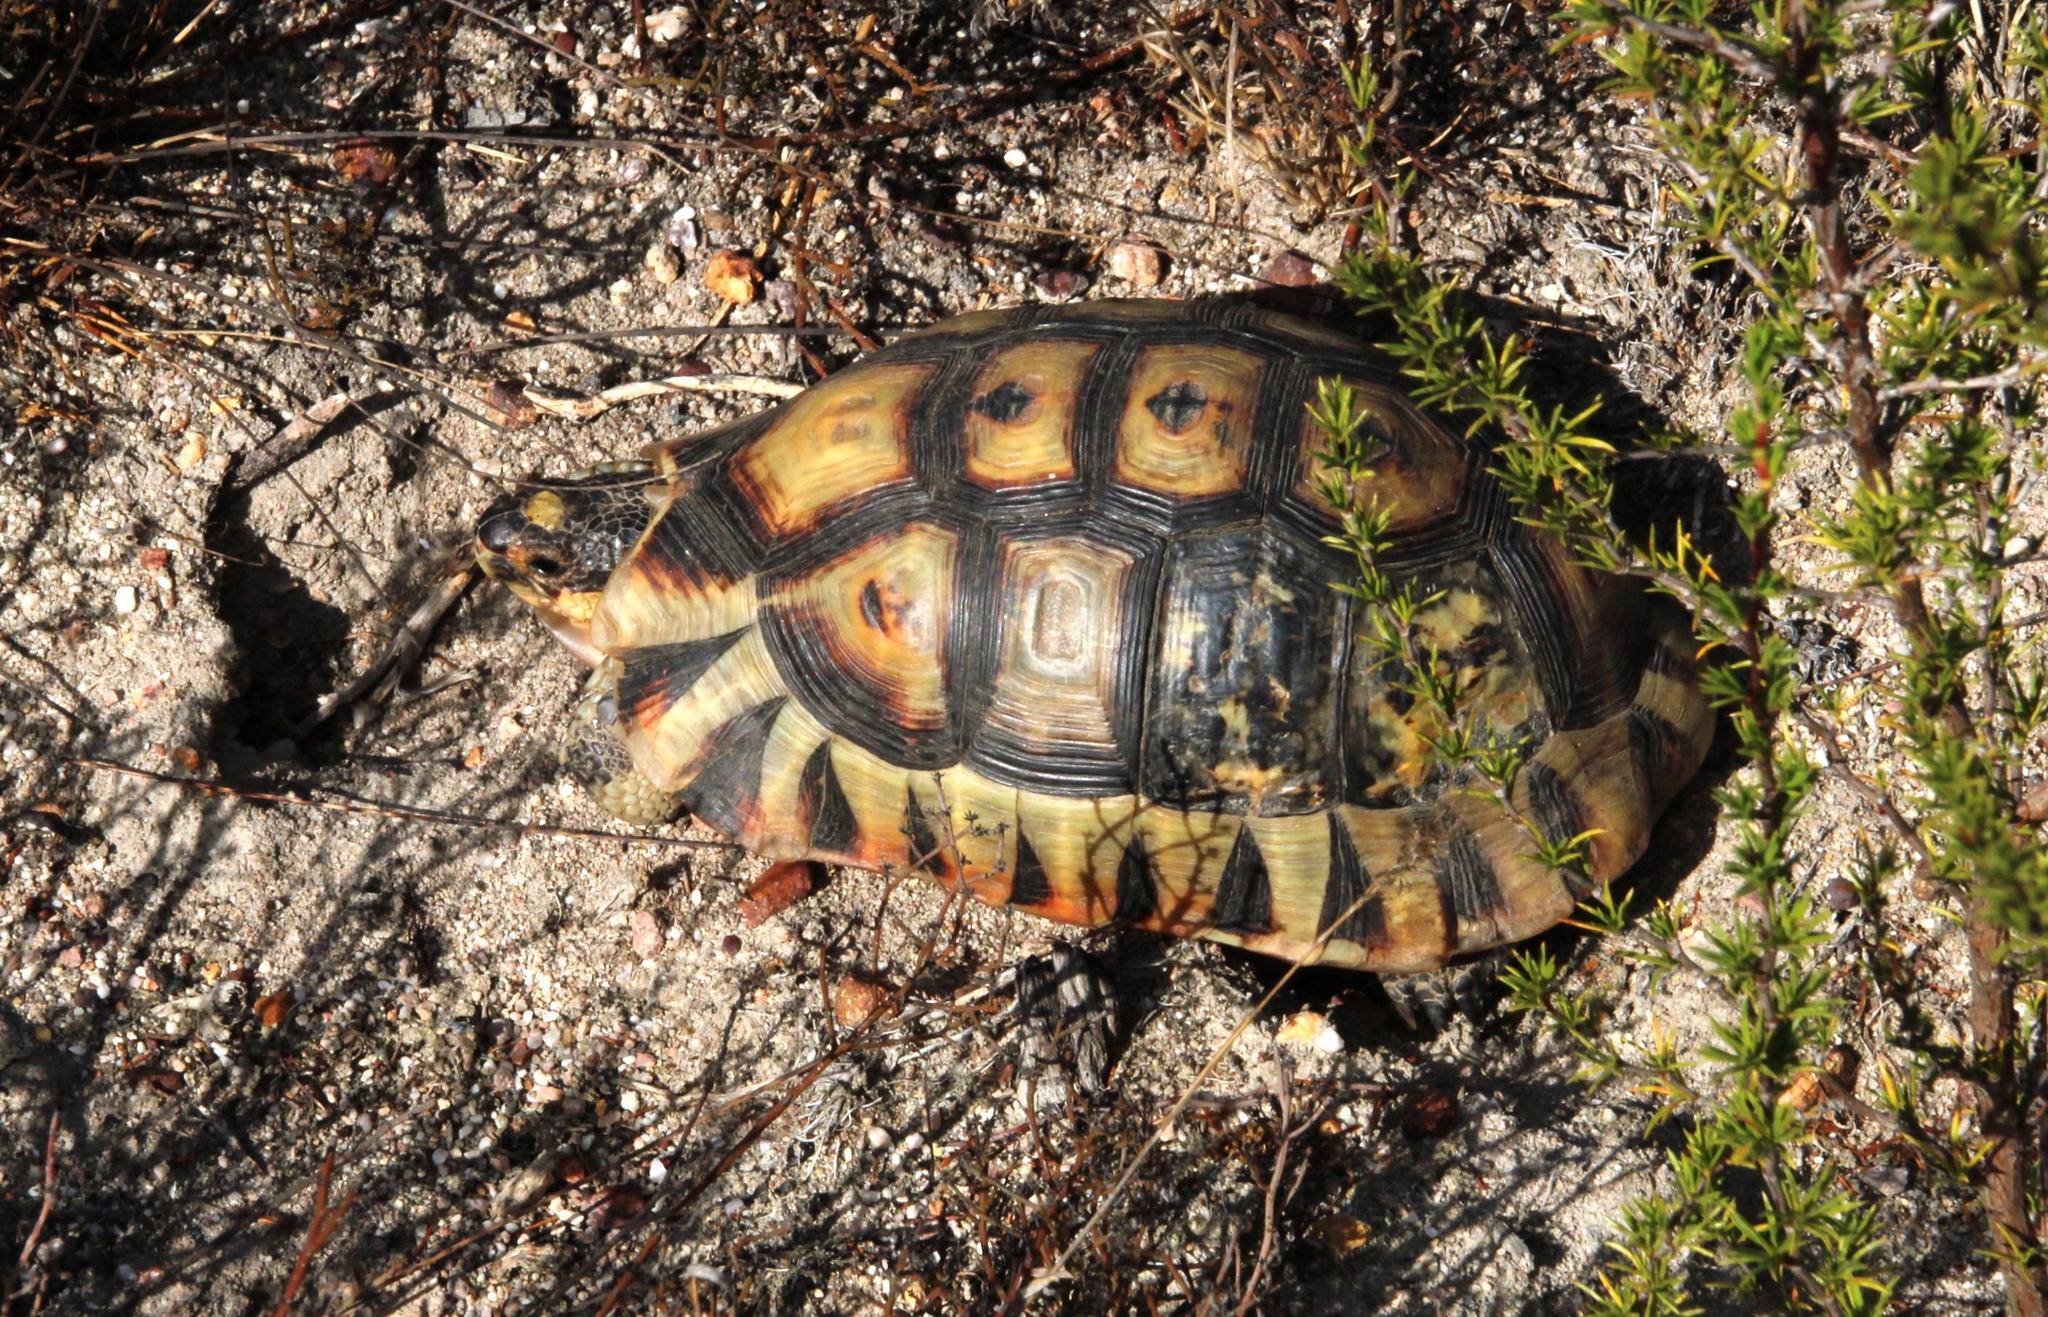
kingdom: Animalia
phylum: Chordata
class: Testudines
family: Testudinidae
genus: Chersina
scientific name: Chersina angulata
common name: South african bowsprit tortoise
